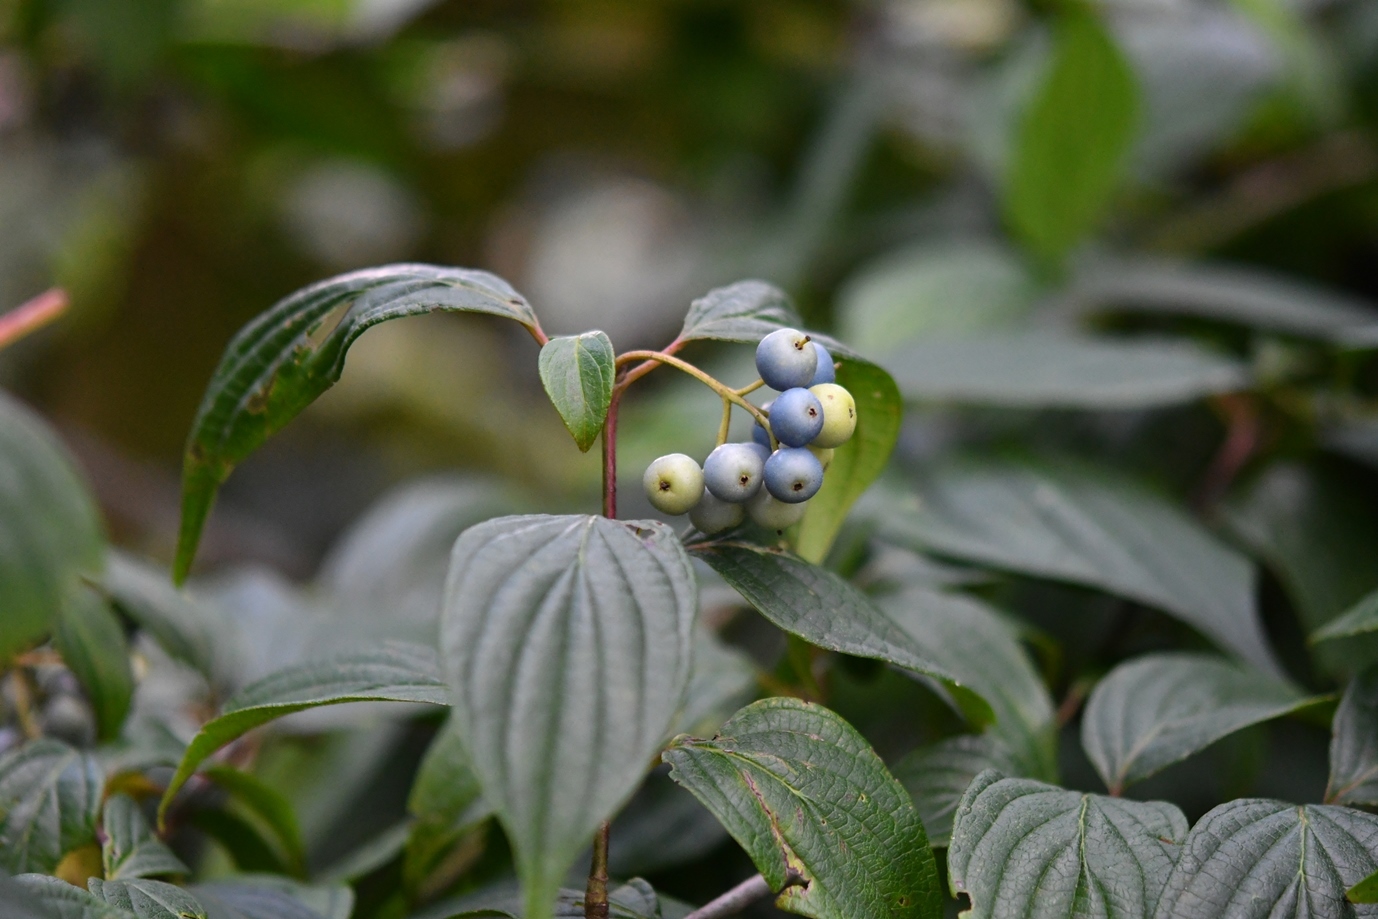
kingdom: Plantae
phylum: Tracheophyta
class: Magnoliopsida
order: Cornales
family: Cornaceae
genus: Cornus
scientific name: Cornus excelsa
